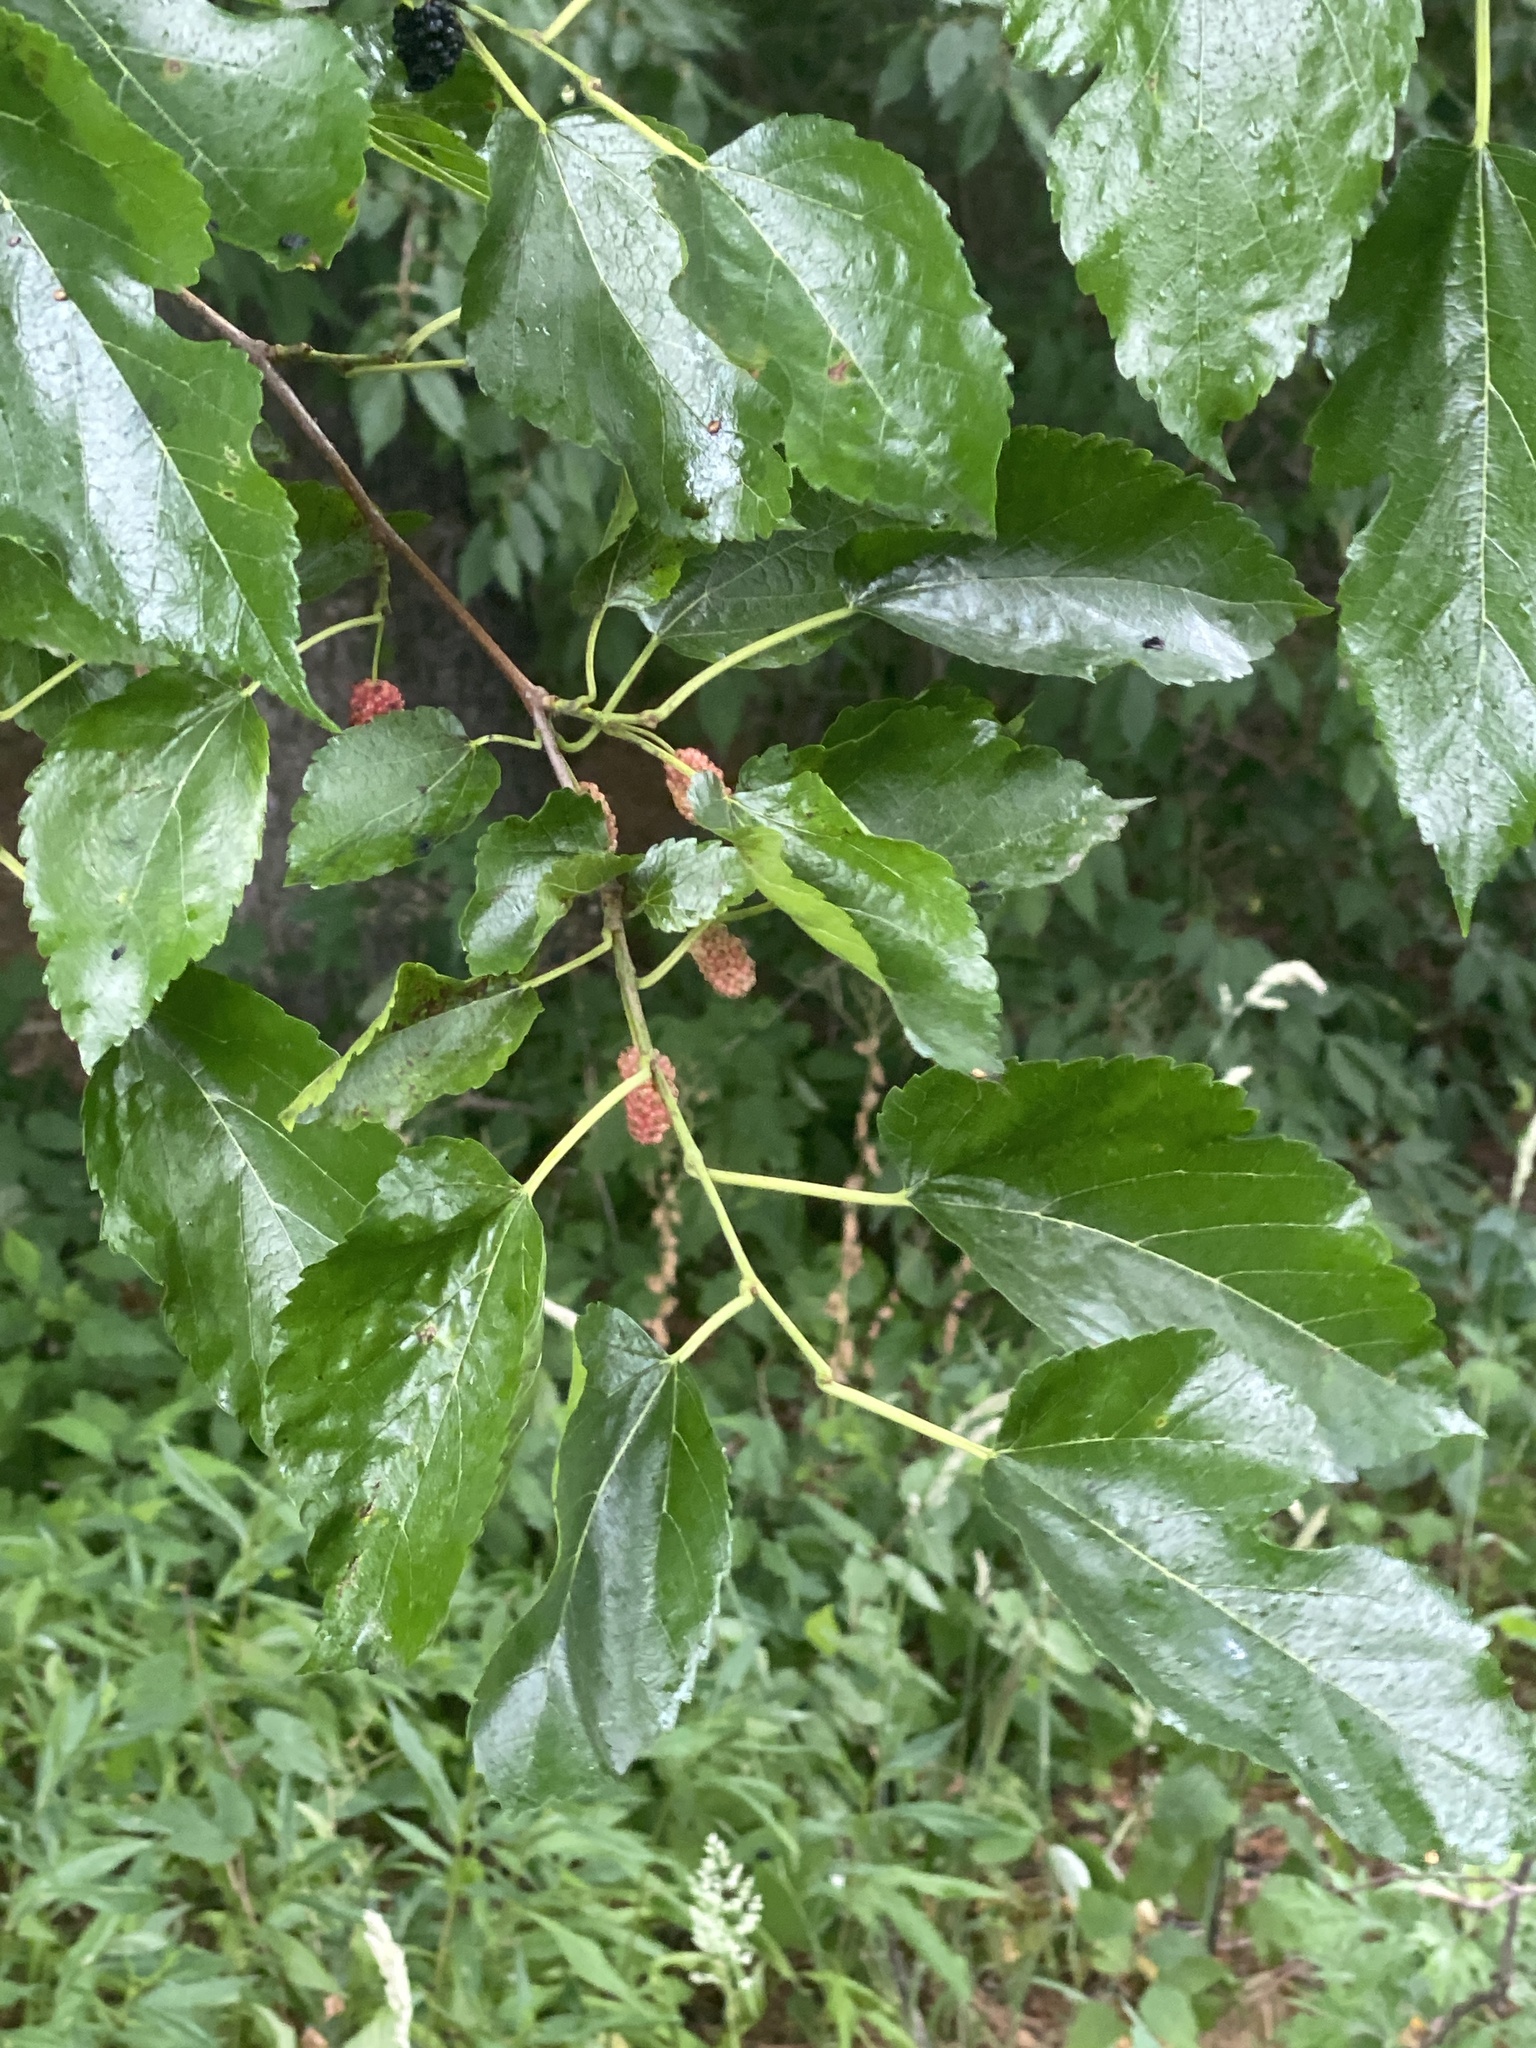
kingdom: Plantae
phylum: Tracheophyta
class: Magnoliopsida
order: Rosales
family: Moraceae
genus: Morus
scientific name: Morus alba
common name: White mulberry
